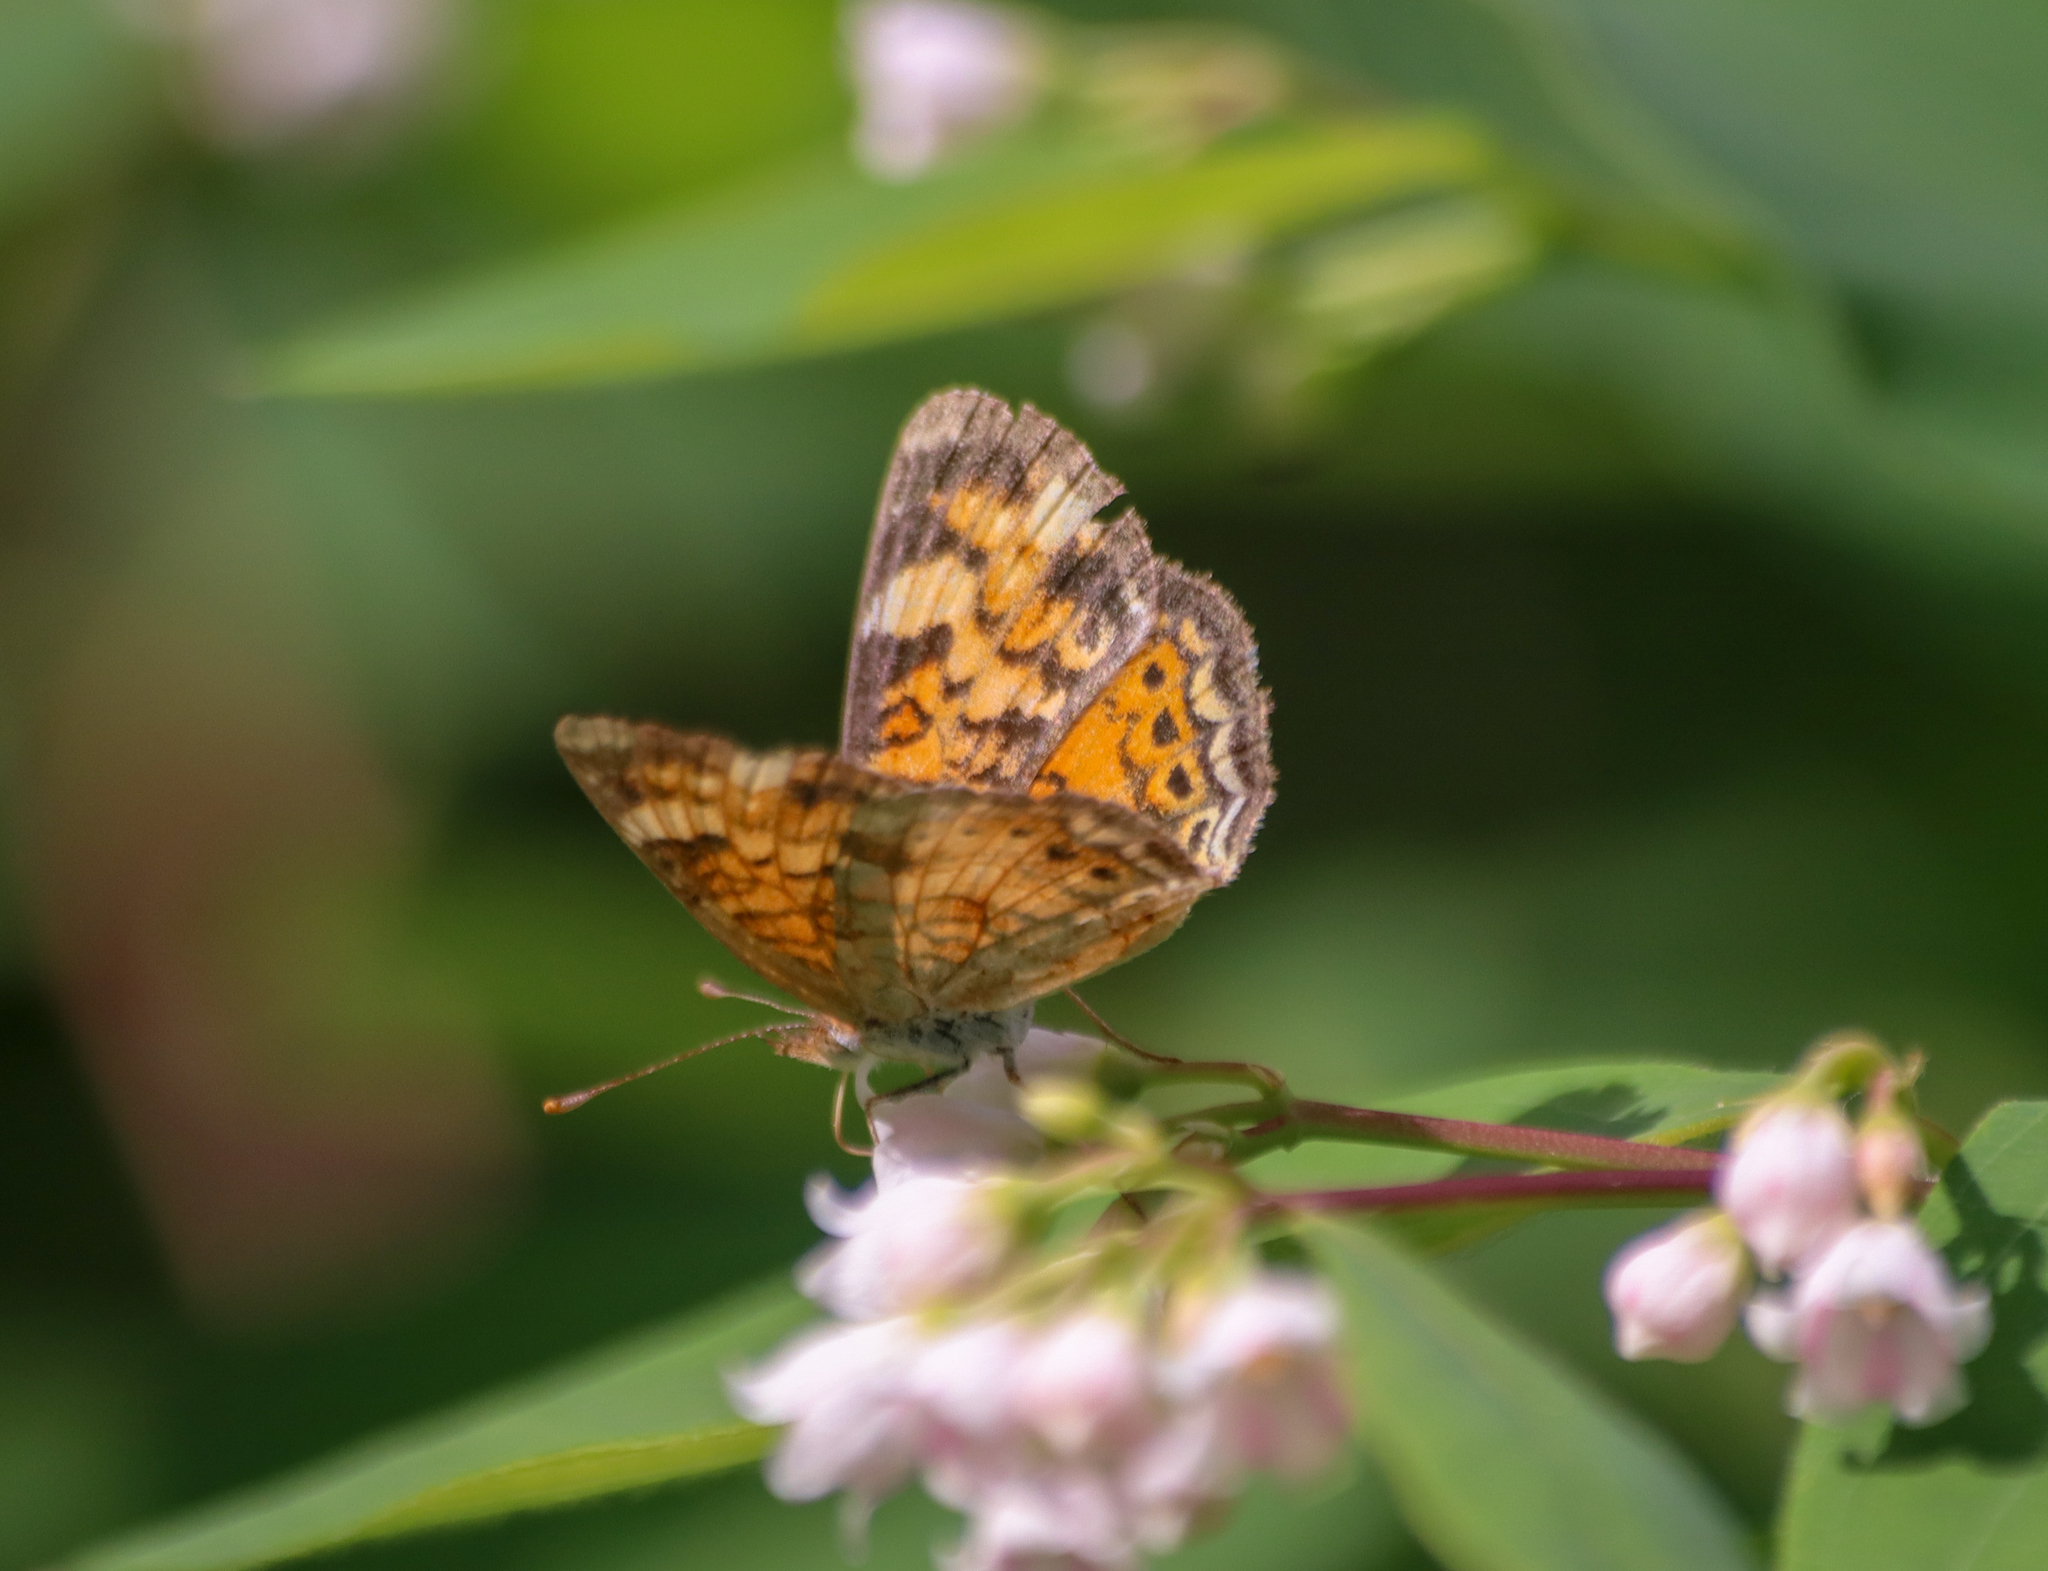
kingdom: Animalia
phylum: Arthropoda
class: Insecta
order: Lepidoptera
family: Nymphalidae
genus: Phyciodes
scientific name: Phyciodes tharos
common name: Pearl crescent
